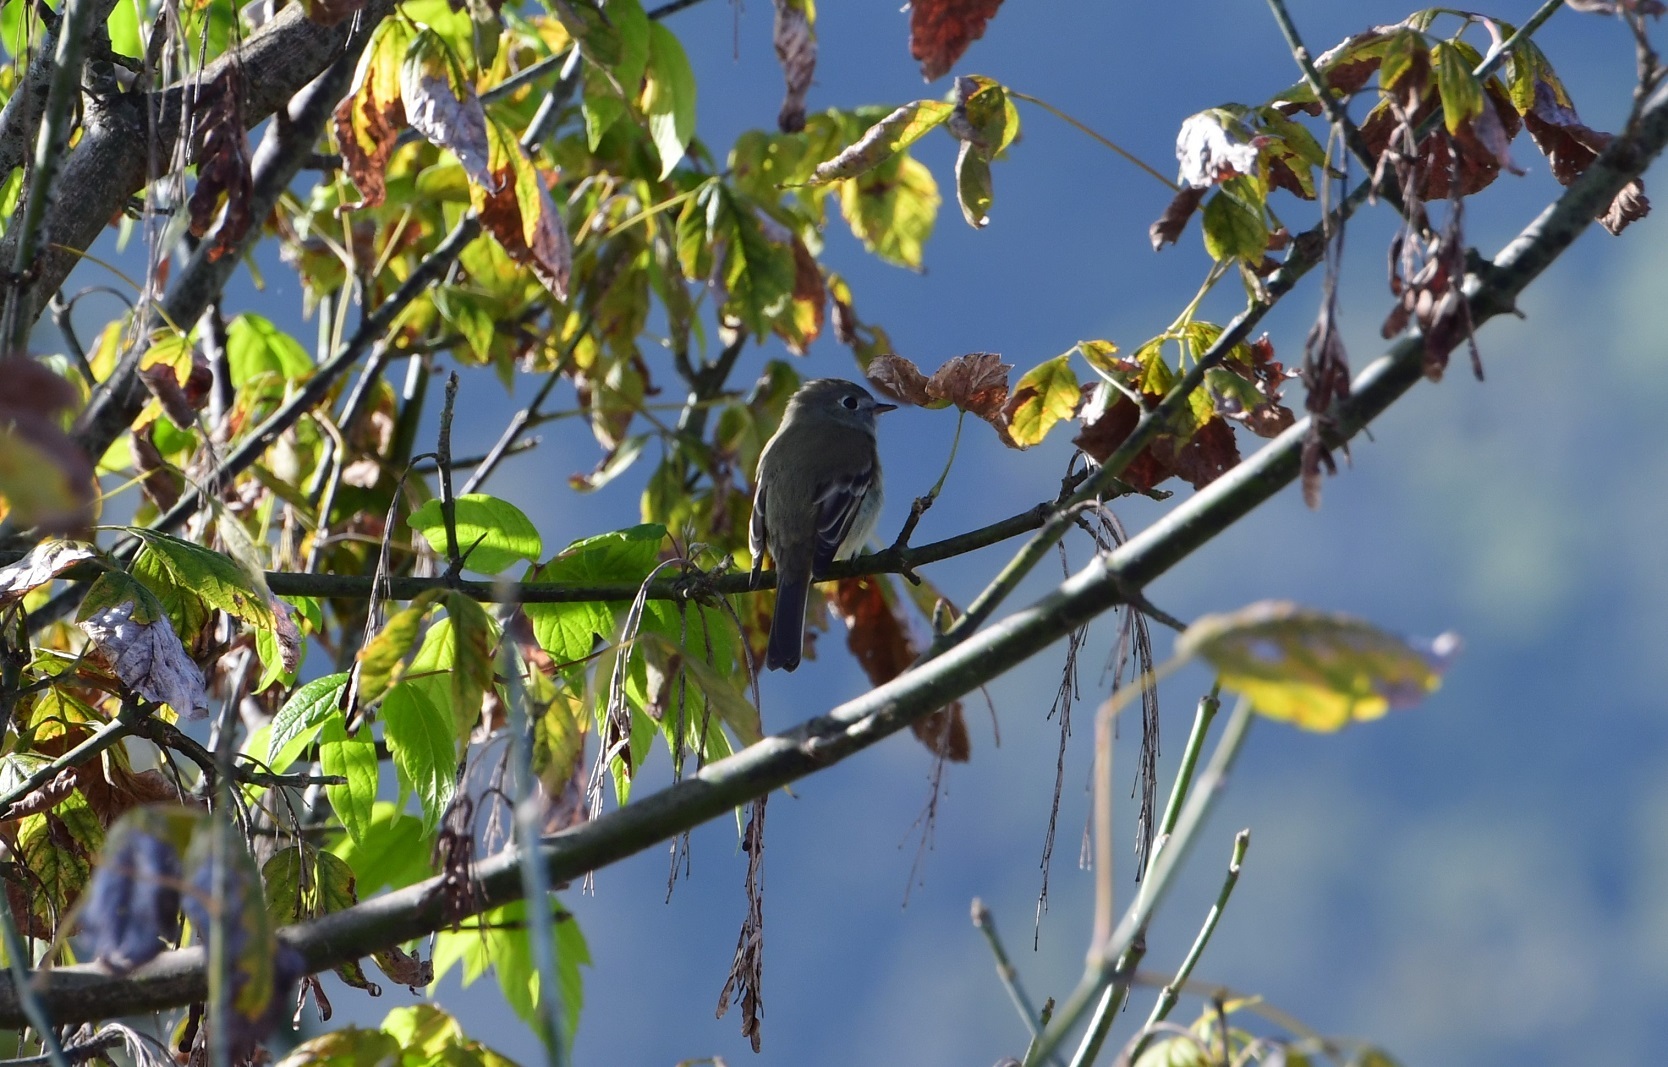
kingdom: Animalia
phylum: Chordata
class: Aves
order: Passeriformes
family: Tyrannidae
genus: Empidonax
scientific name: Empidonax hammondii
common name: Hammond's flycatcher
